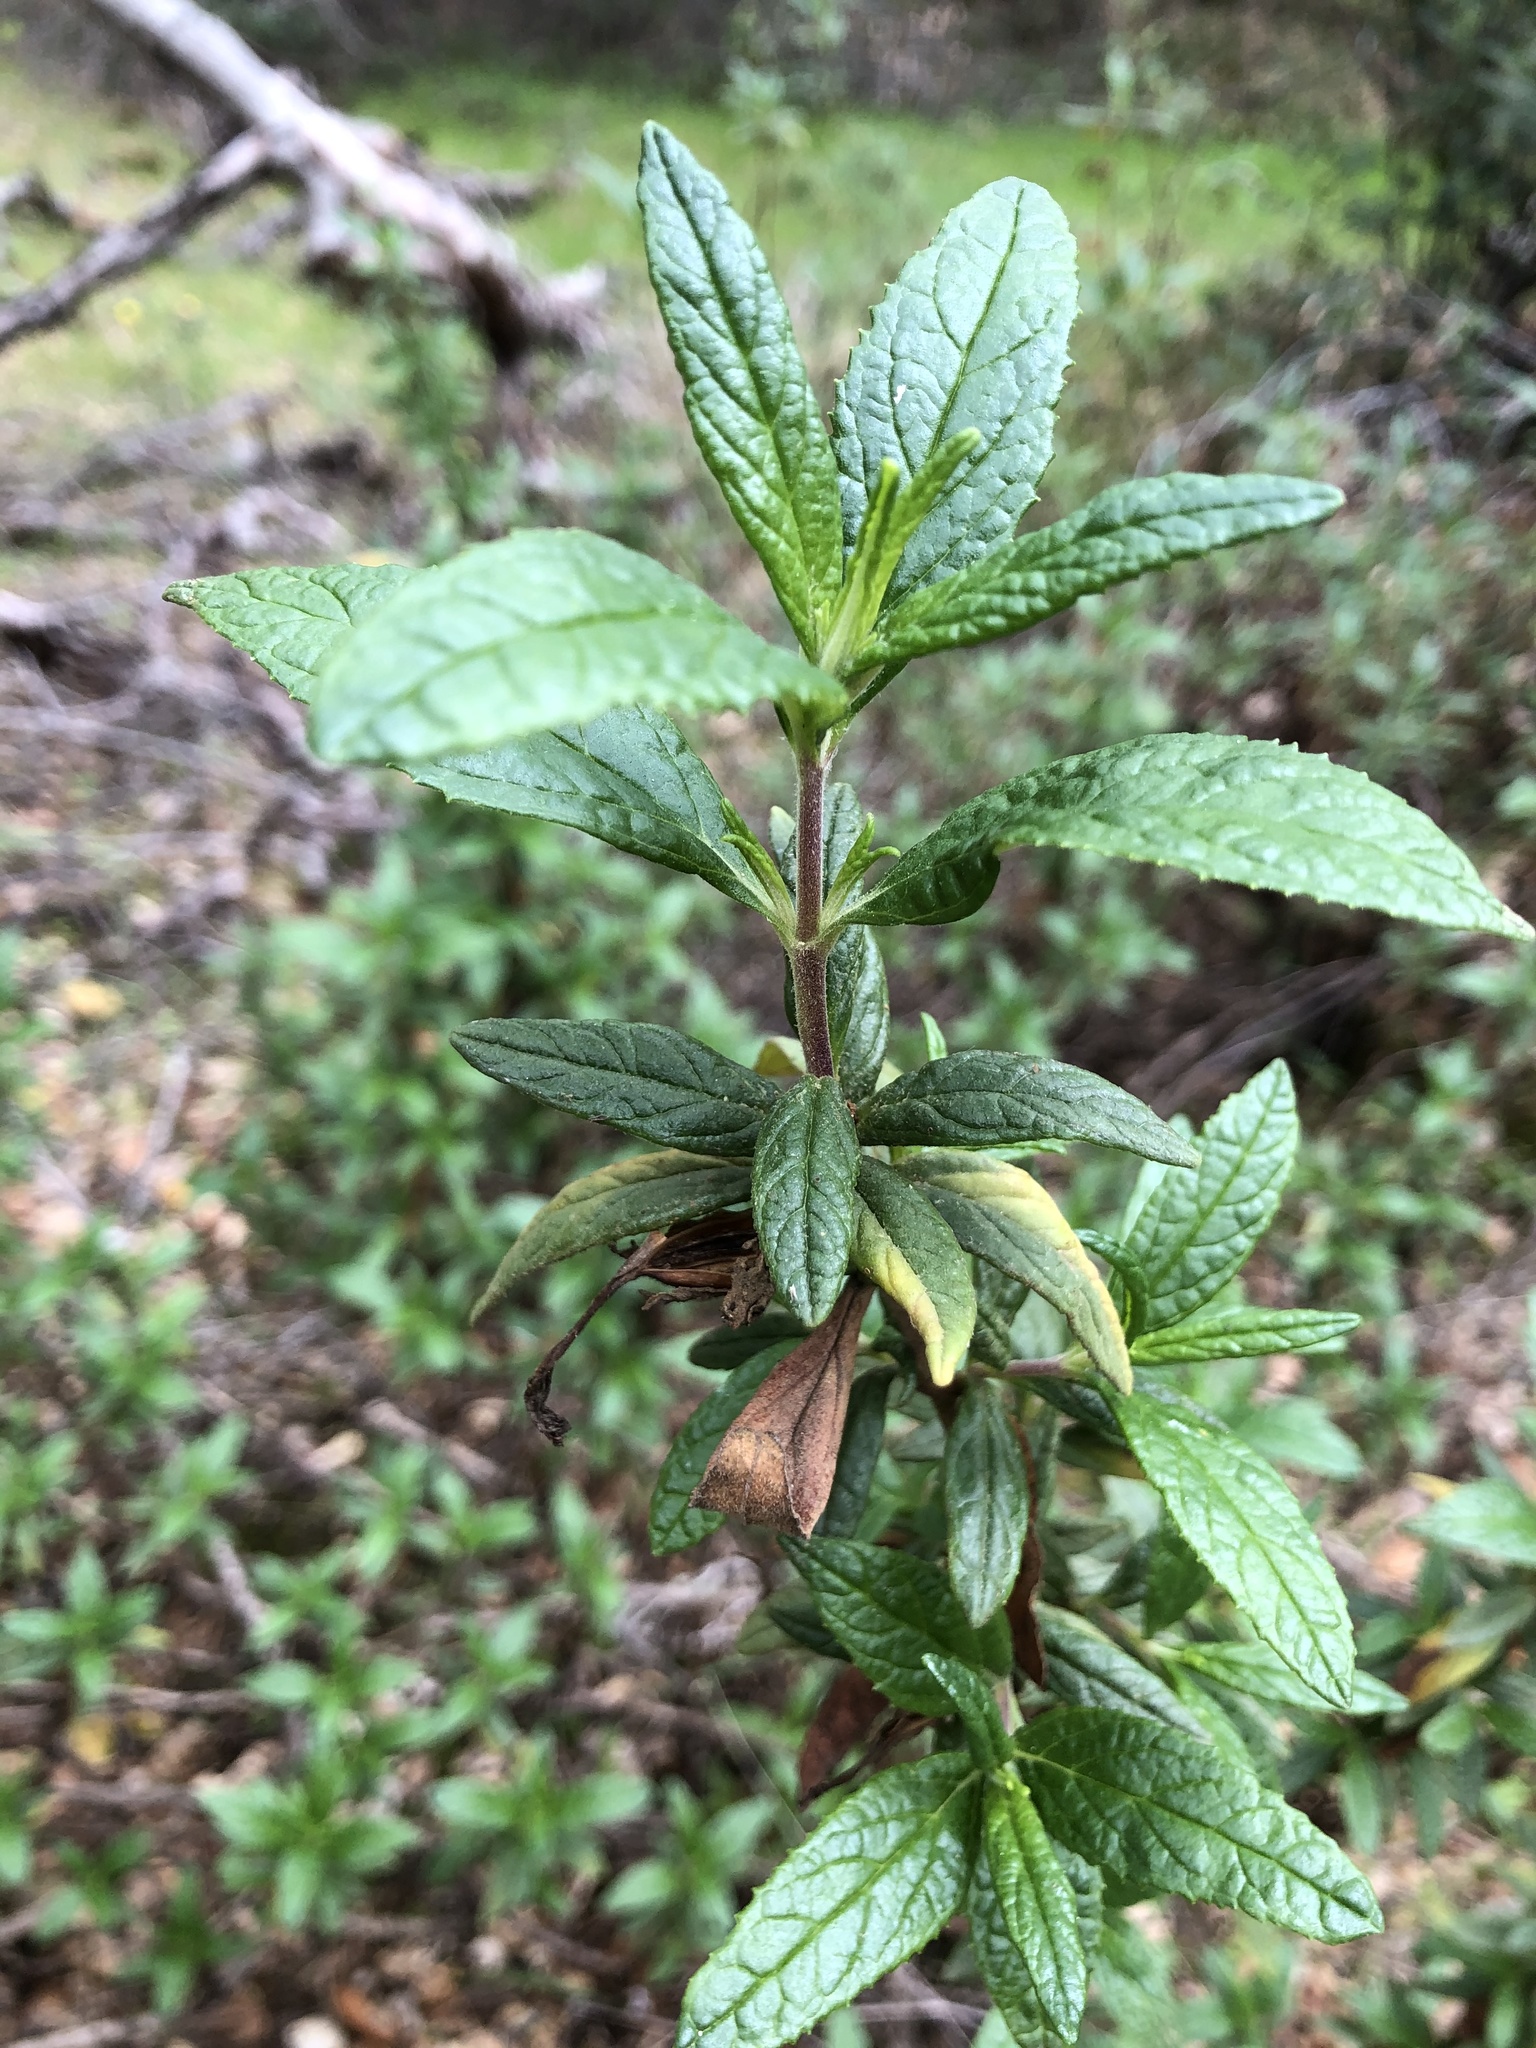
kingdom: Plantae
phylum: Tracheophyta
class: Magnoliopsida
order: Lamiales
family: Phrymaceae
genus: Diplacus
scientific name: Diplacus aurantiacus
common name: Bush monkey-flower
